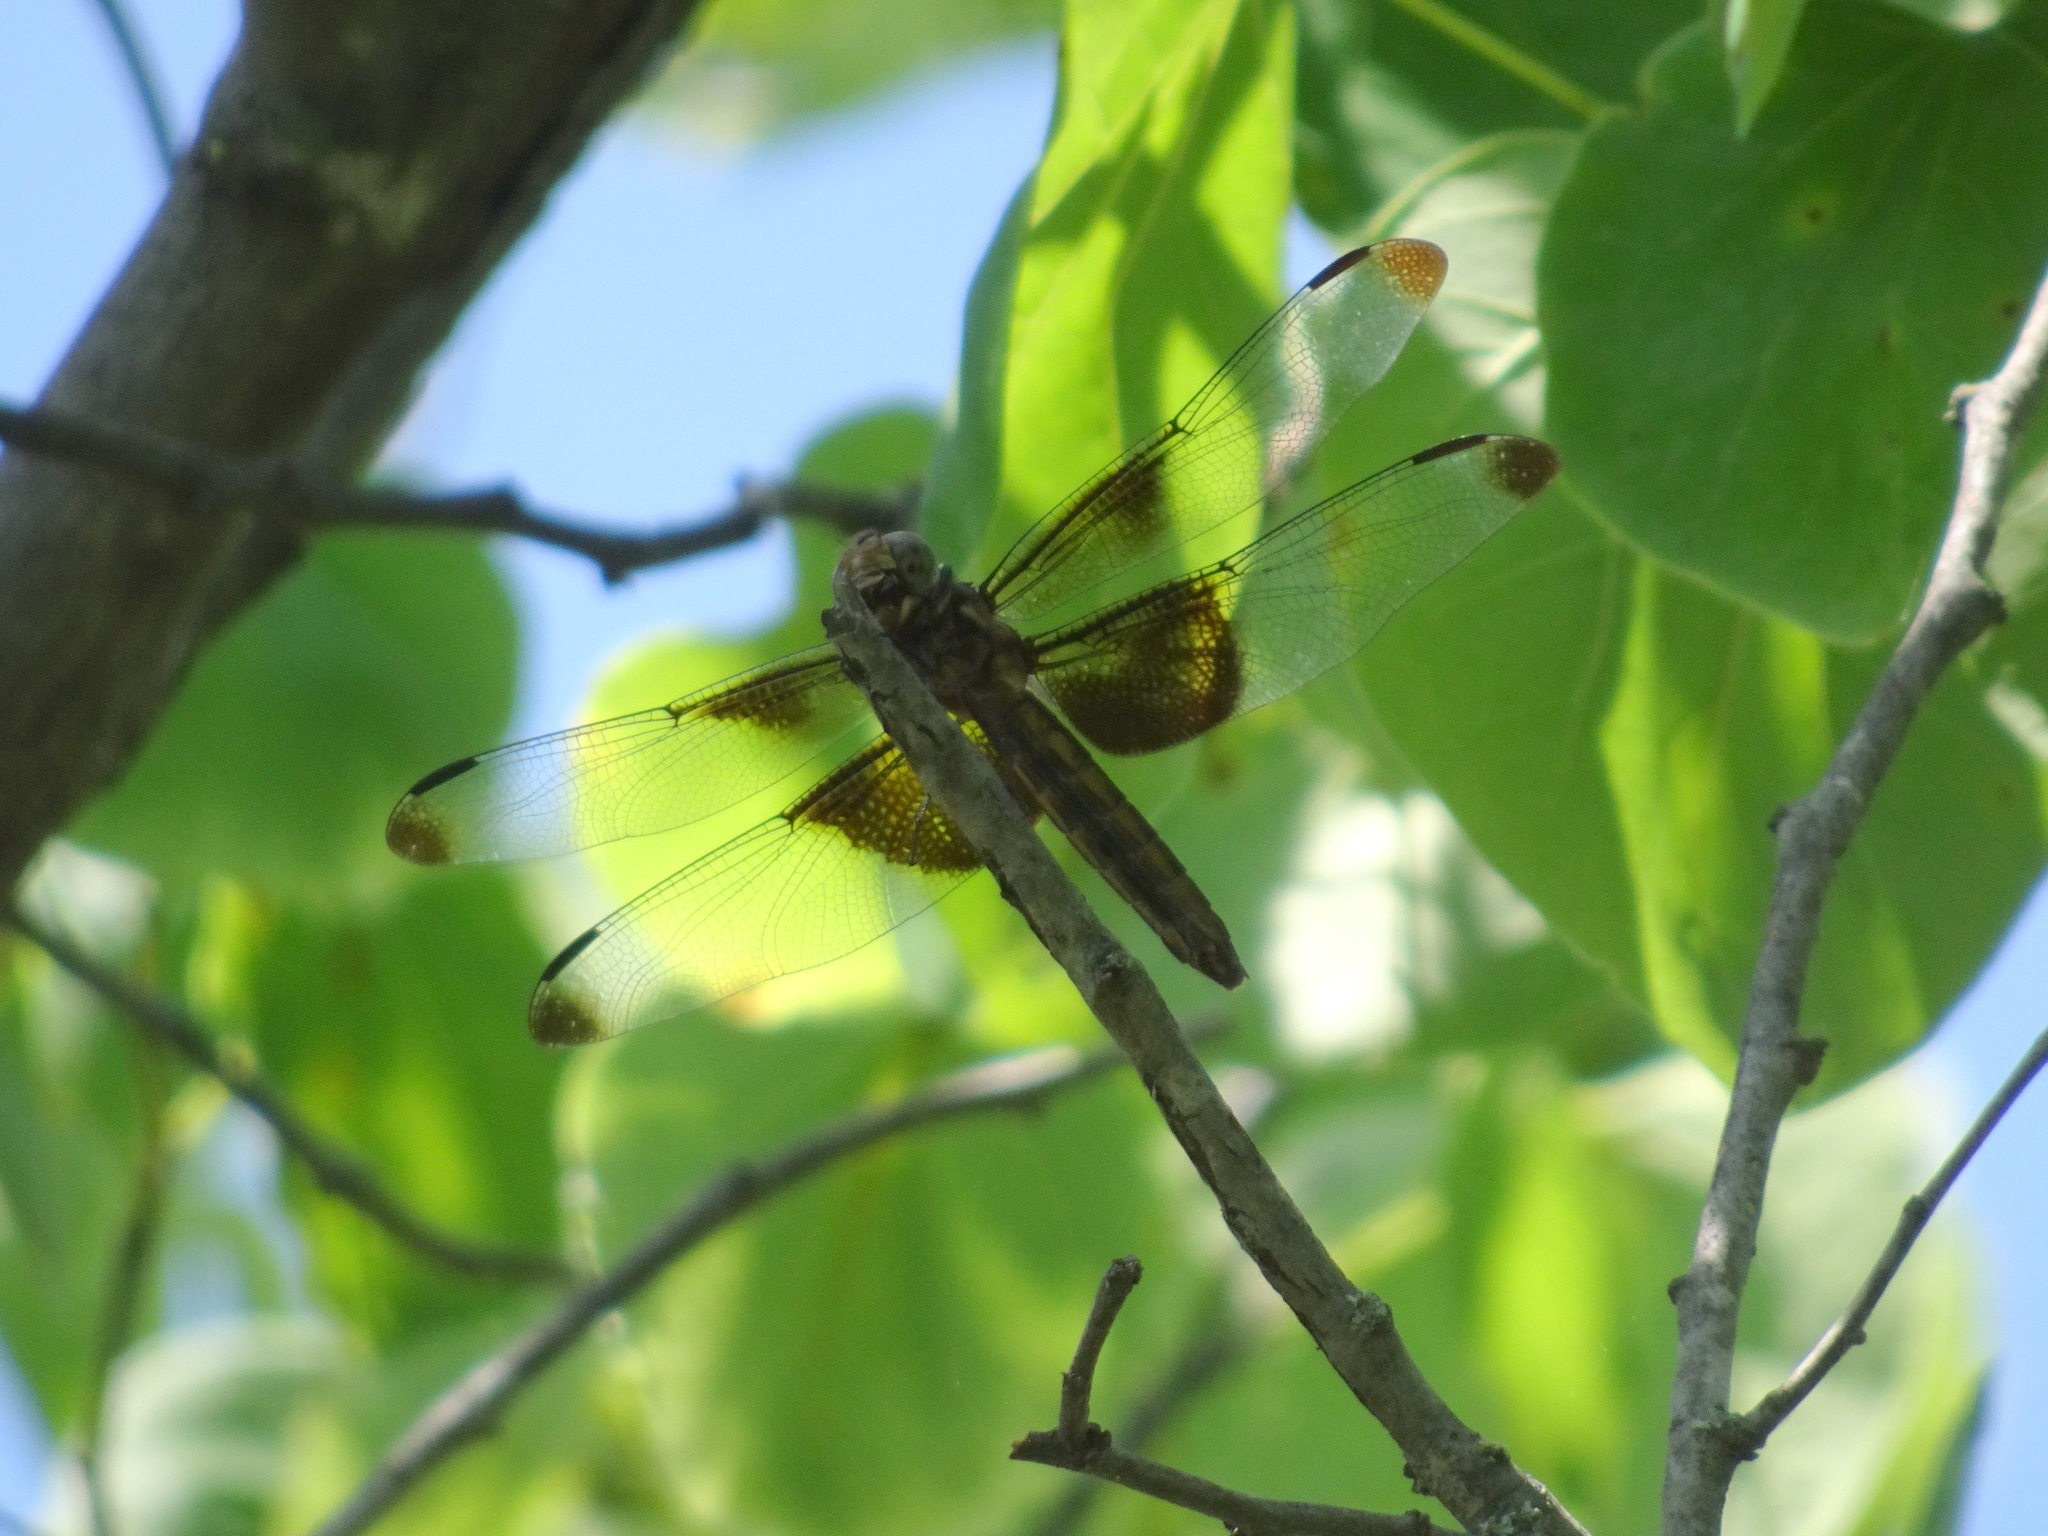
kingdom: Animalia
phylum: Arthropoda
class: Insecta
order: Odonata
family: Libellulidae
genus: Libellula
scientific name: Libellula luctuosa
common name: Widow skimmer
